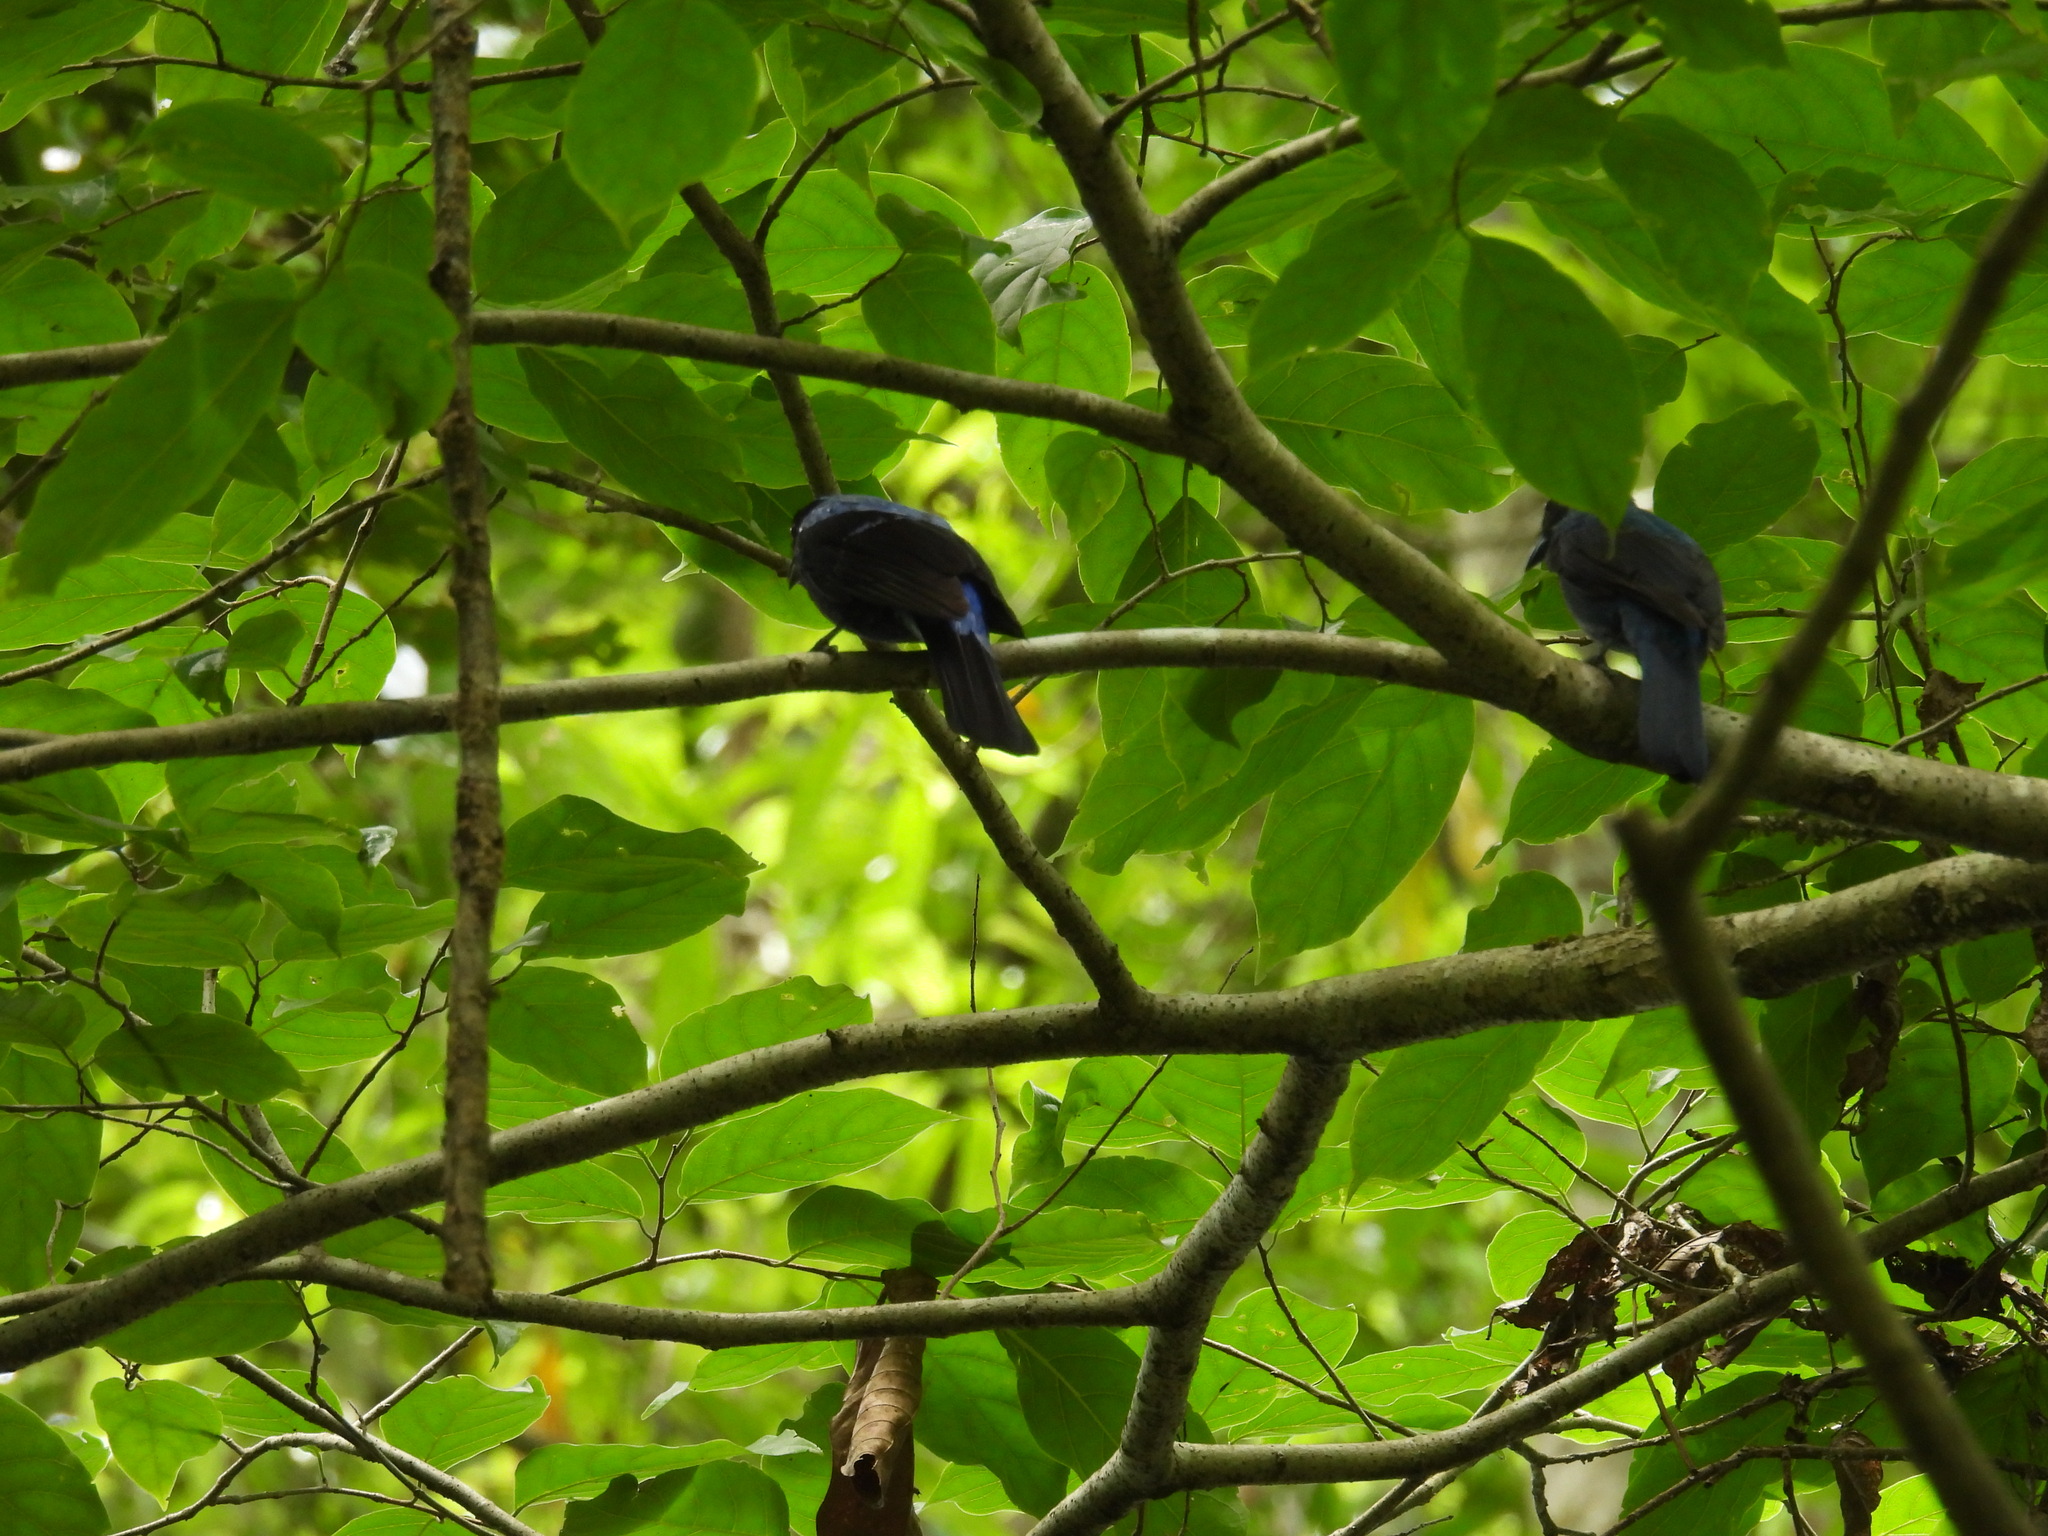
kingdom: Animalia
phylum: Chordata
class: Aves
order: Passeriformes
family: Irenidae
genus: Irena
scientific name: Irena puella
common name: Asian fairy-bluebird
